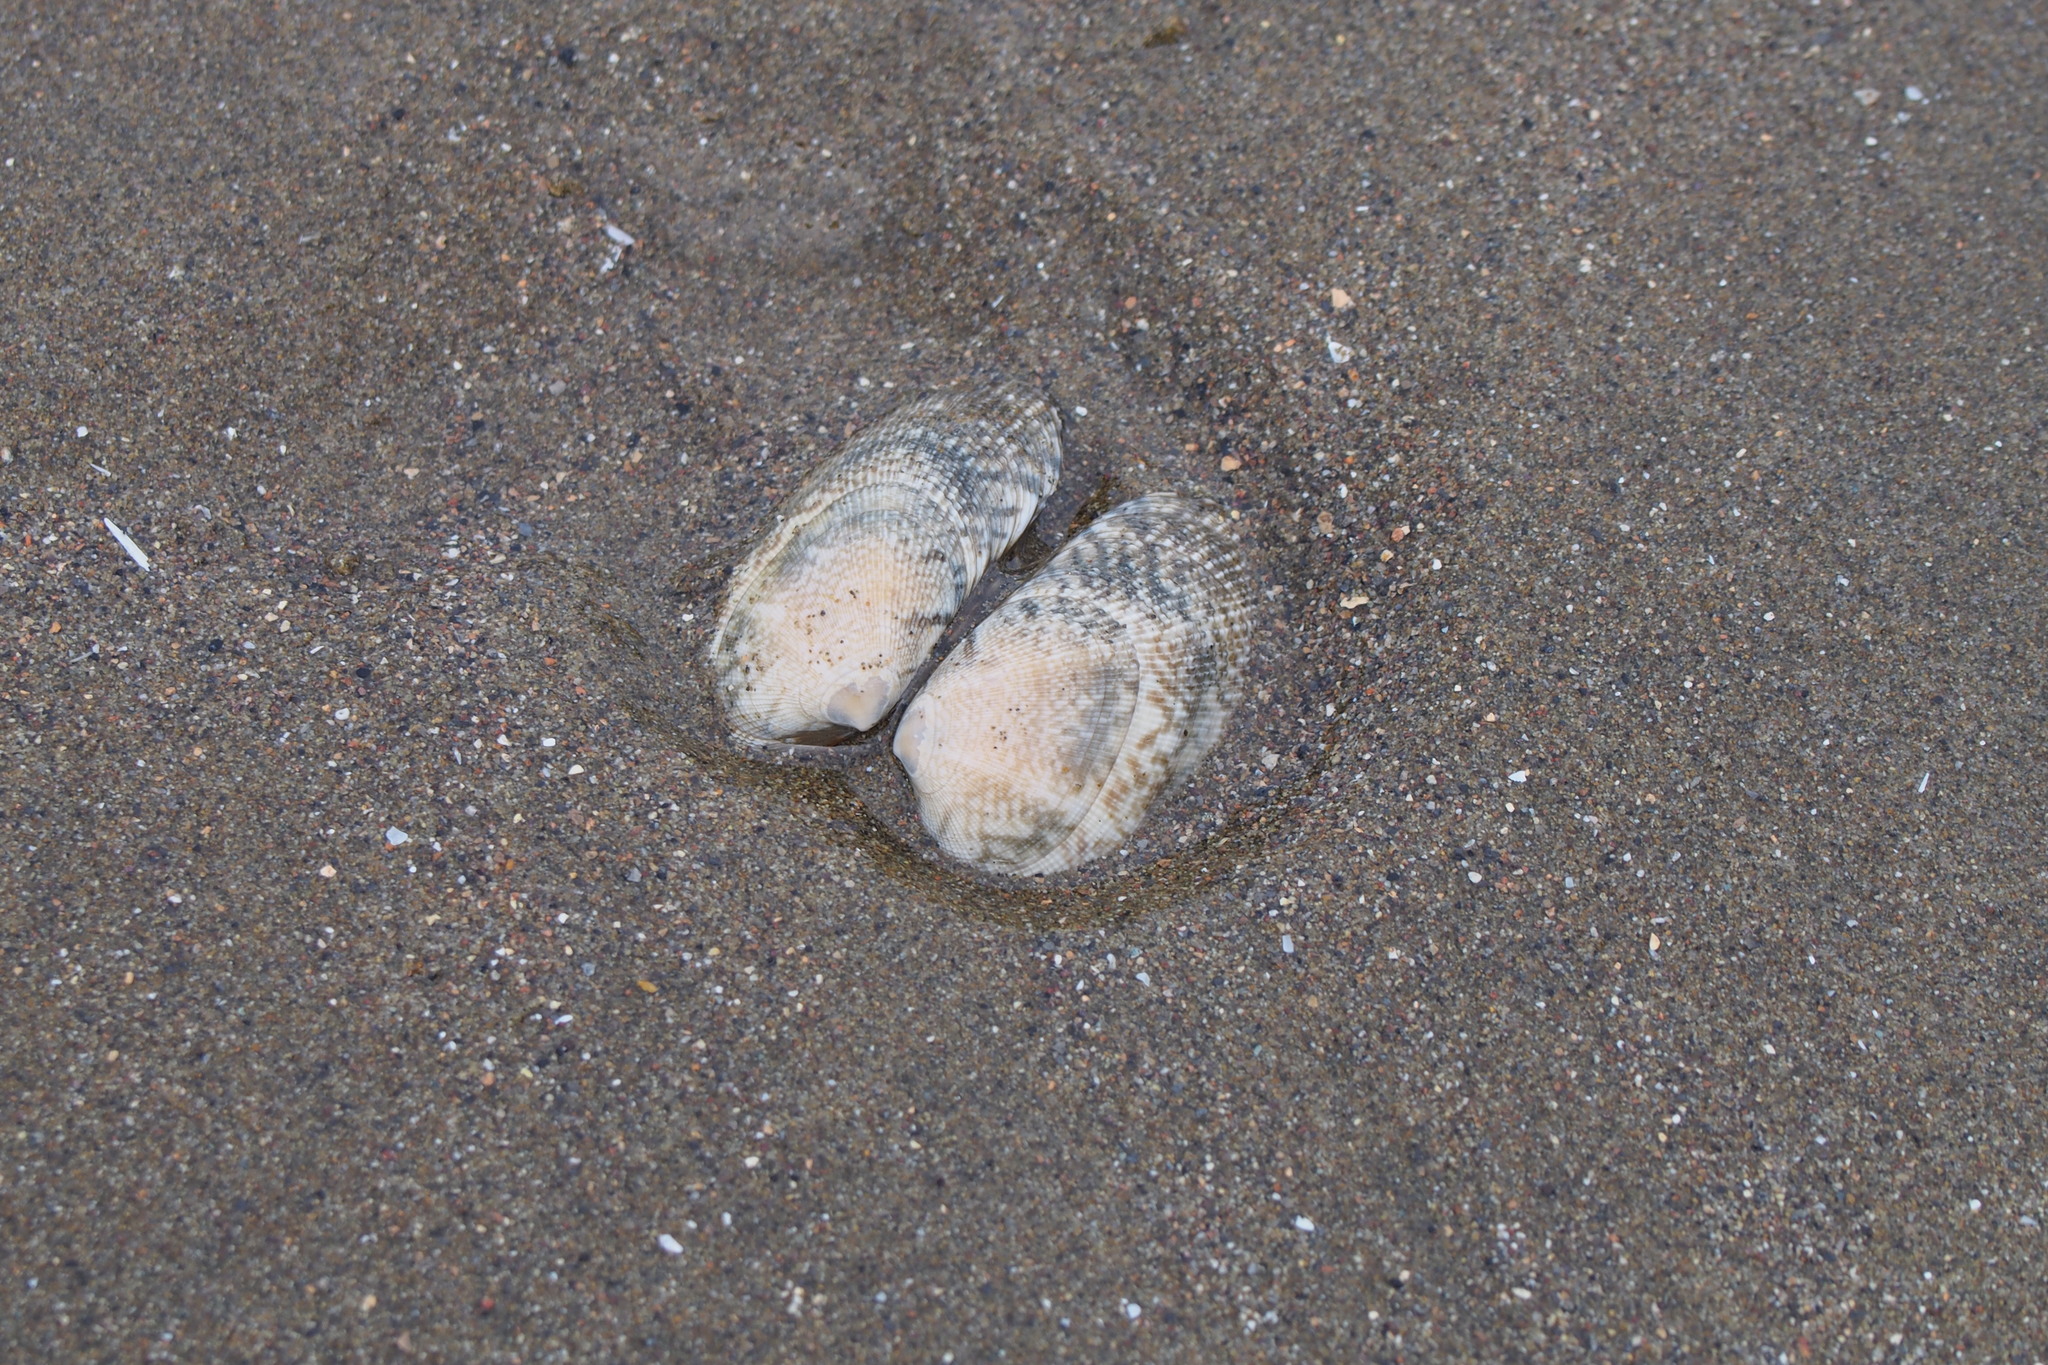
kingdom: Animalia
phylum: Mollusca
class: Bivalvia
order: Venerida
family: Veneridae
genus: Ruditapes
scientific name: Ruditapes philippinarum
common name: Manila clam
